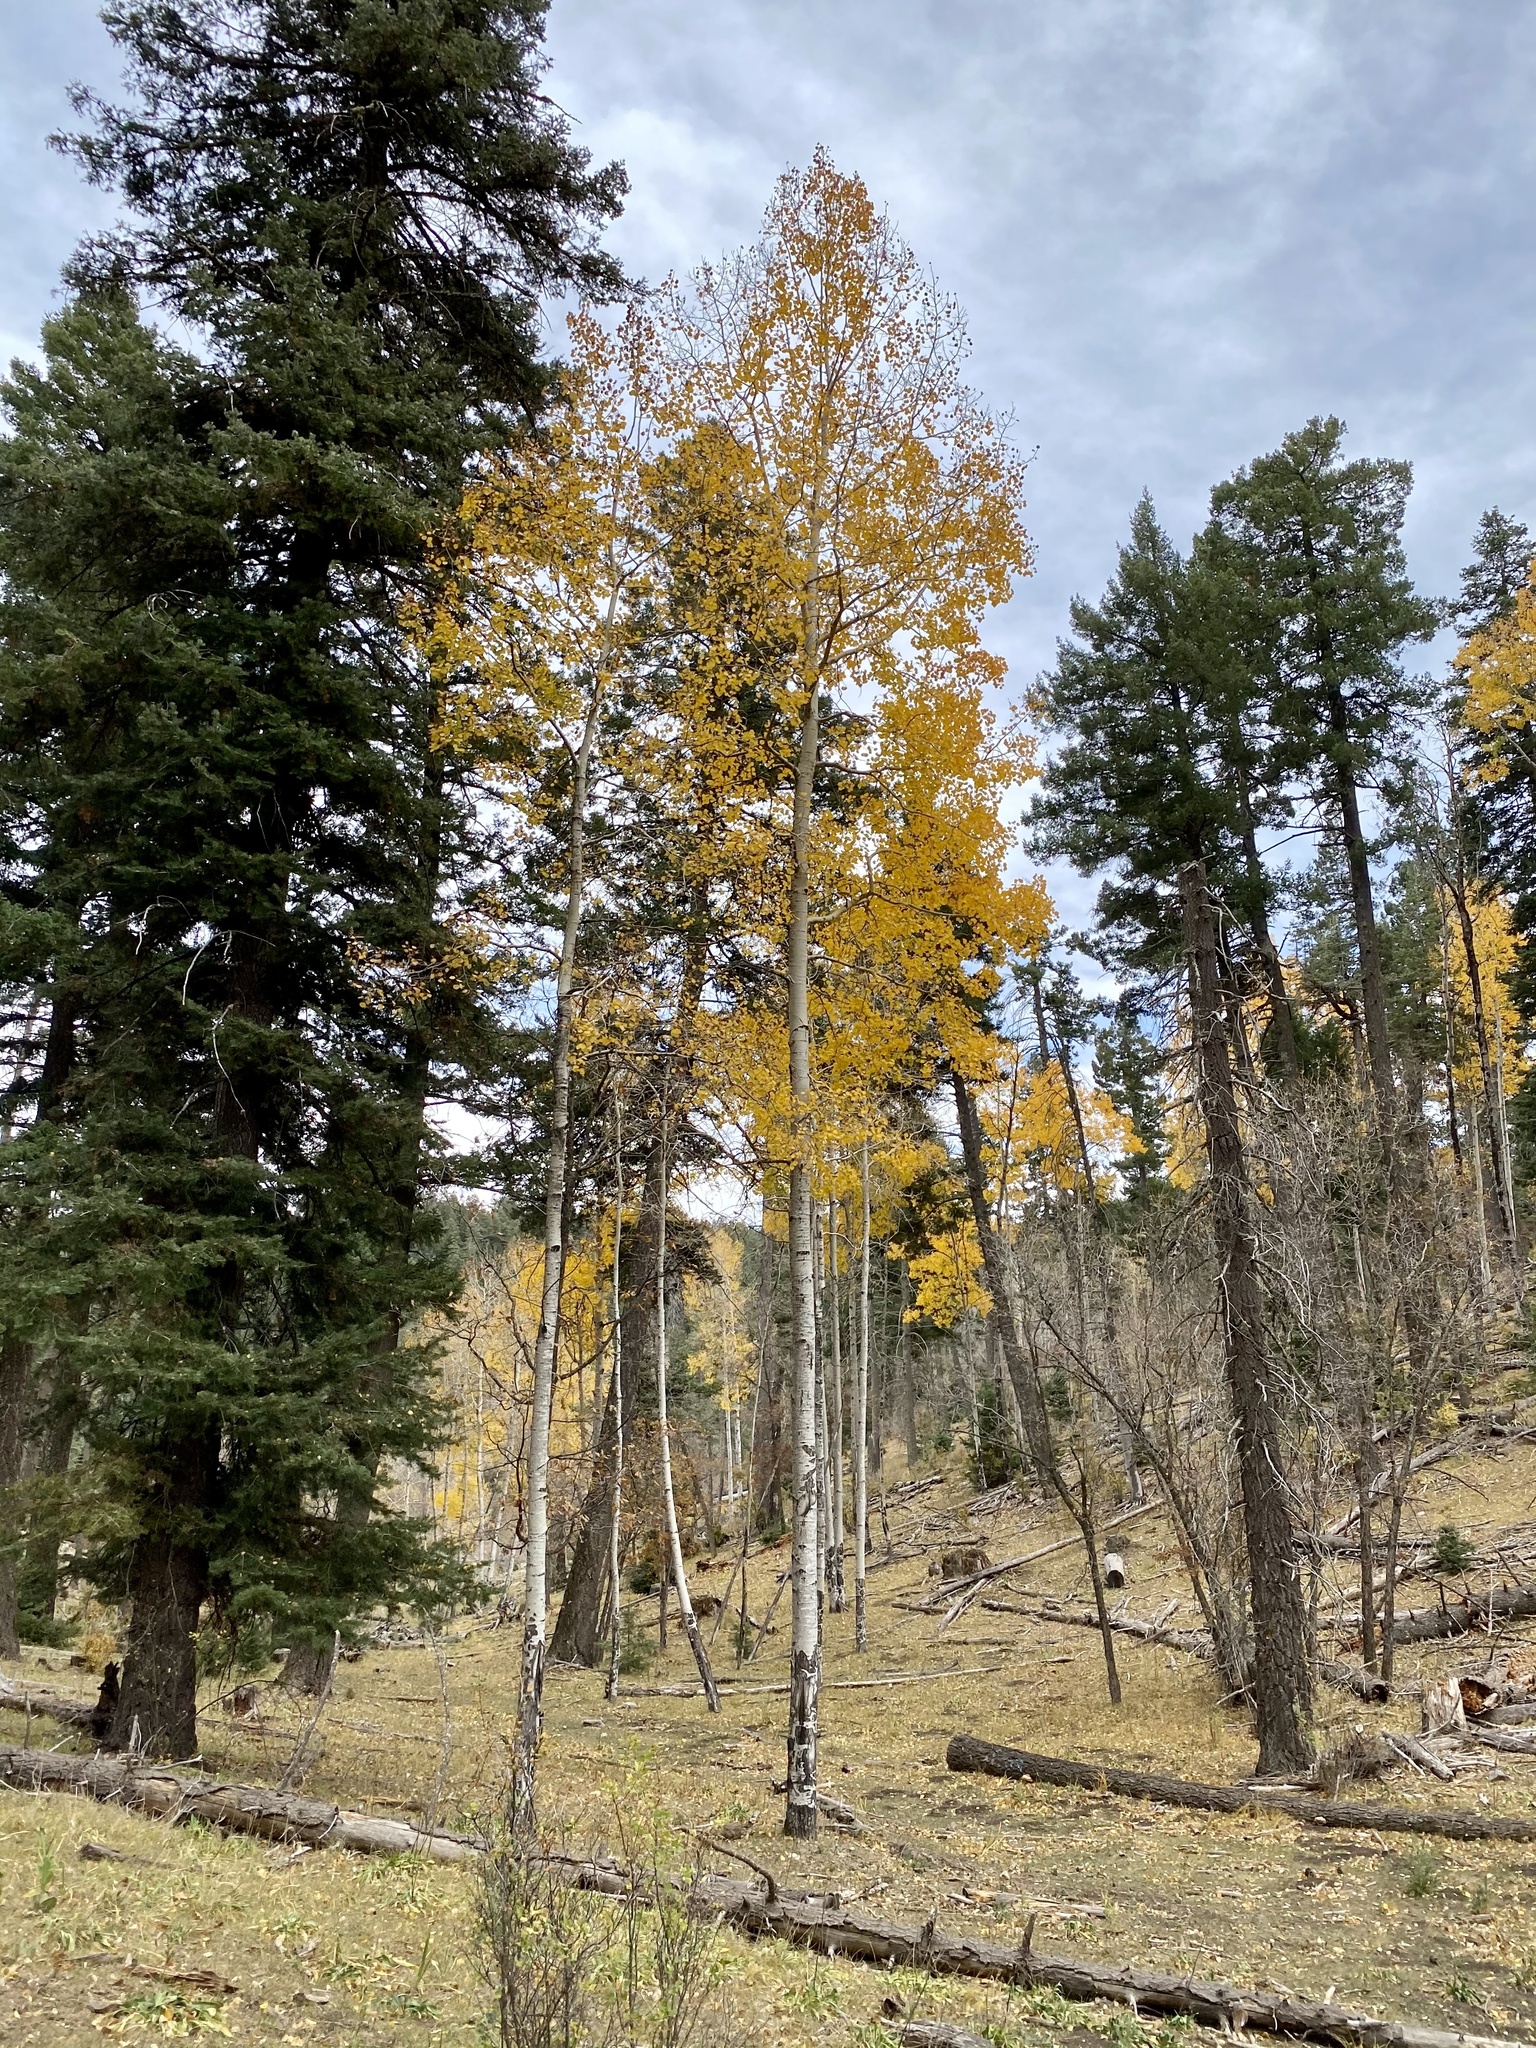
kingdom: Plantae
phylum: Tracheophyta
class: Magnoliopsida
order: Malpighiales
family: Salicaceae
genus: Populus
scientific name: Populus tremuloides
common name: Quaking aspen
